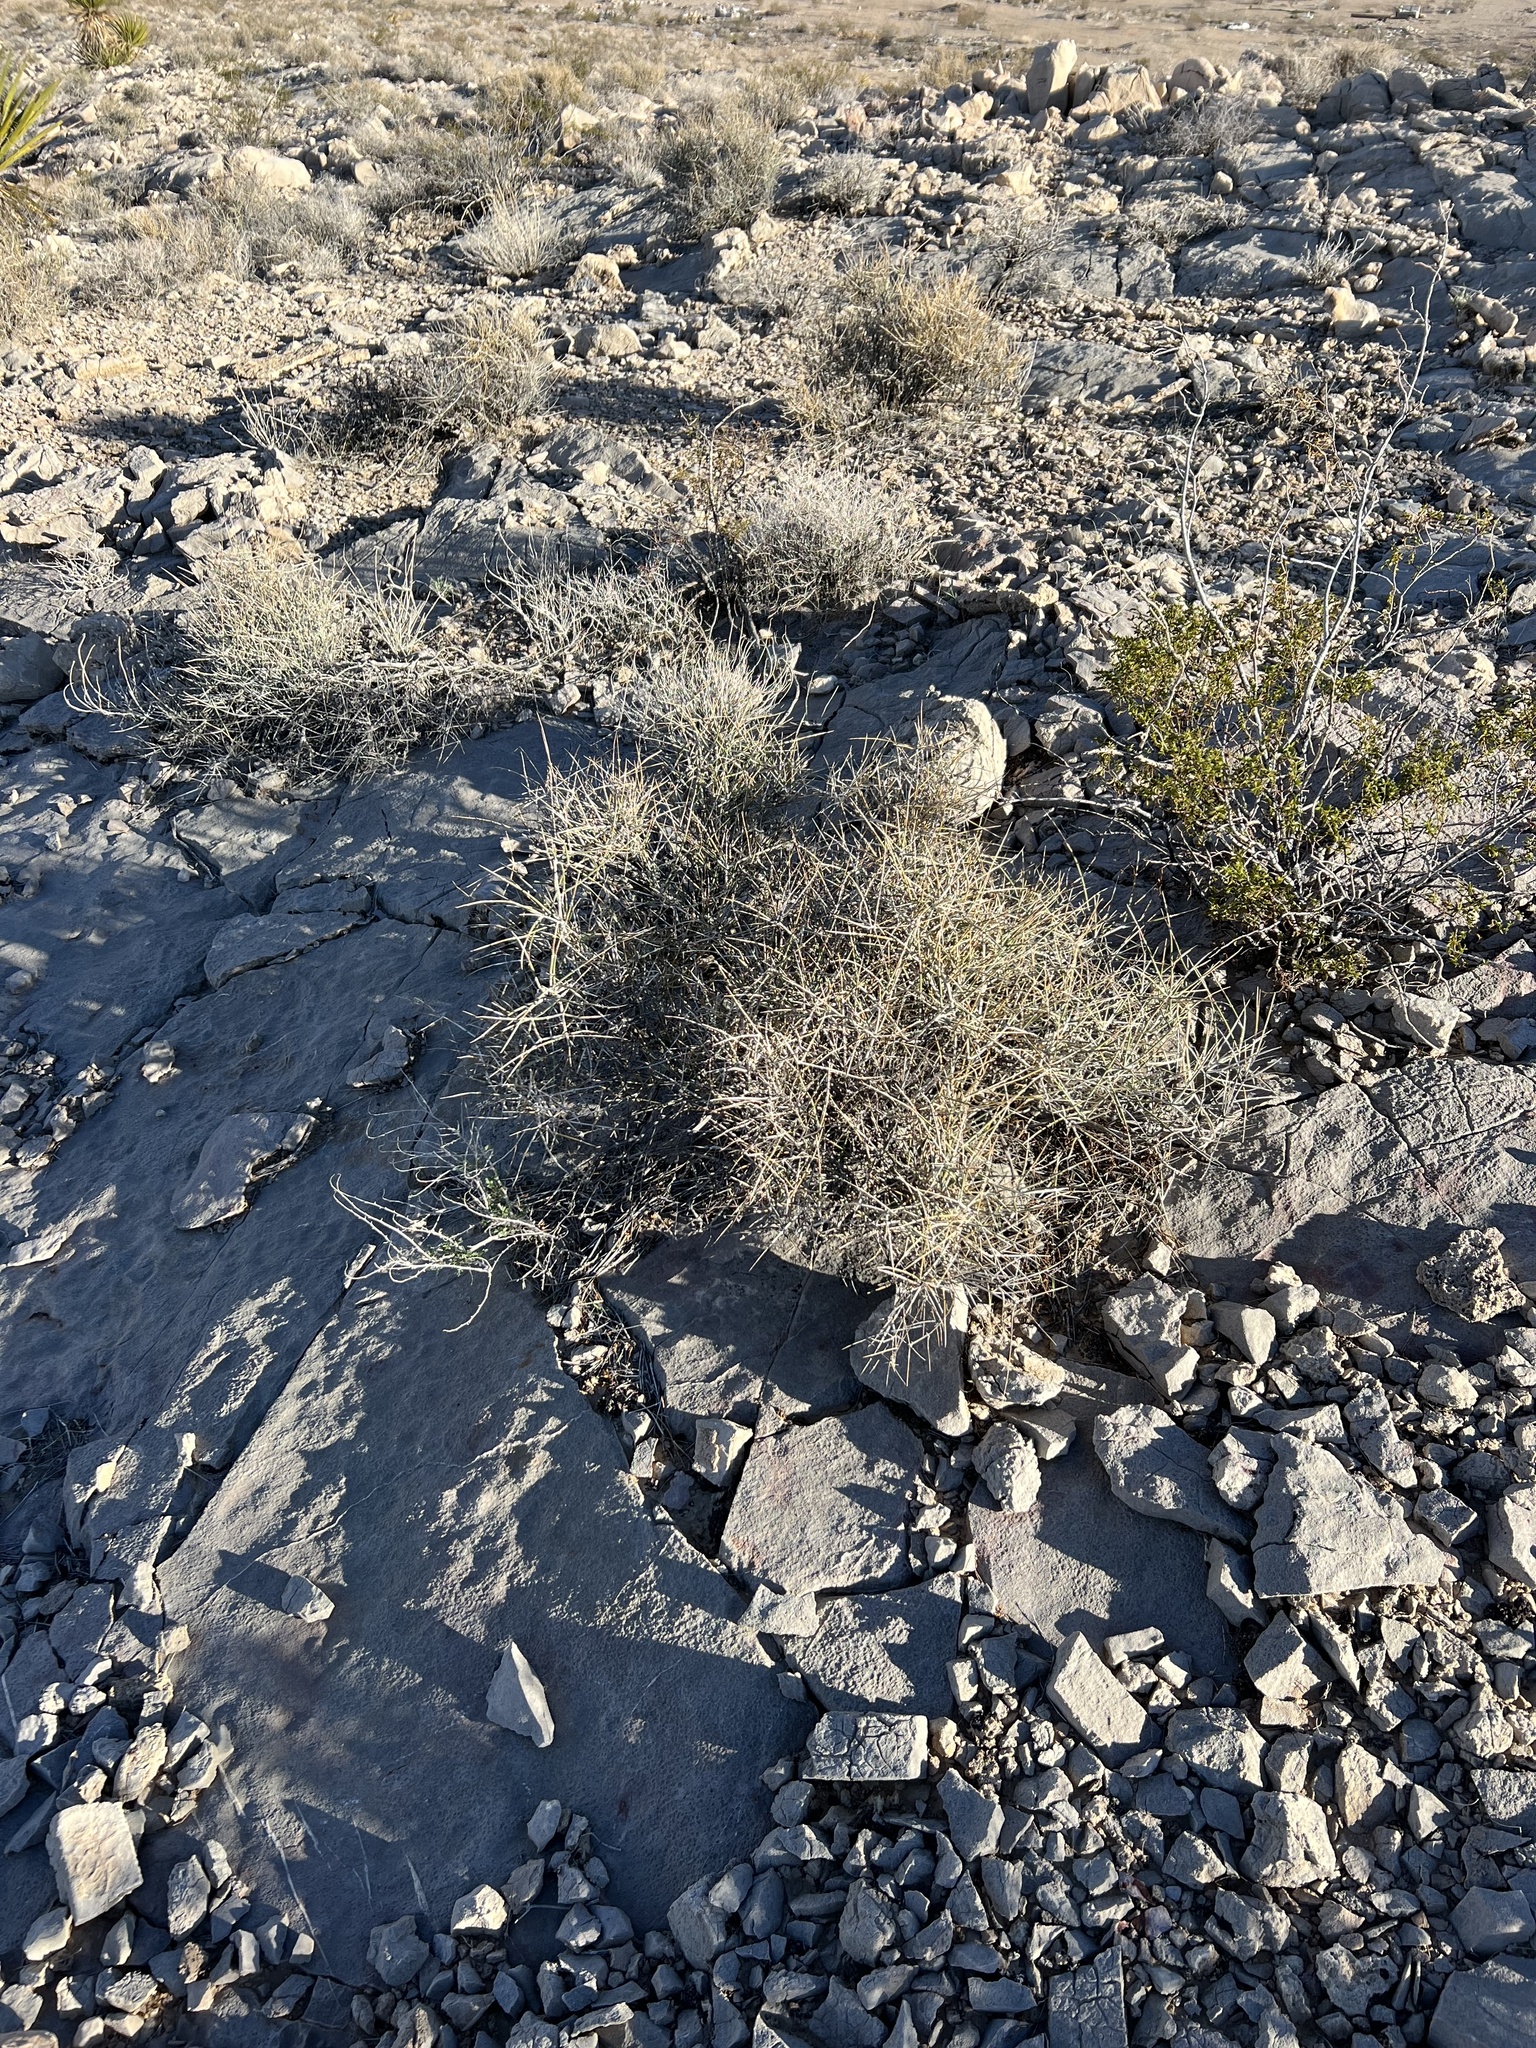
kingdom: Plantae
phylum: Tracheophyta
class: Gnetopsida
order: Ephedrales
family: Ephedraceae
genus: Ephedra
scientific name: Ephedra nevadensis
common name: Gray ephedra
